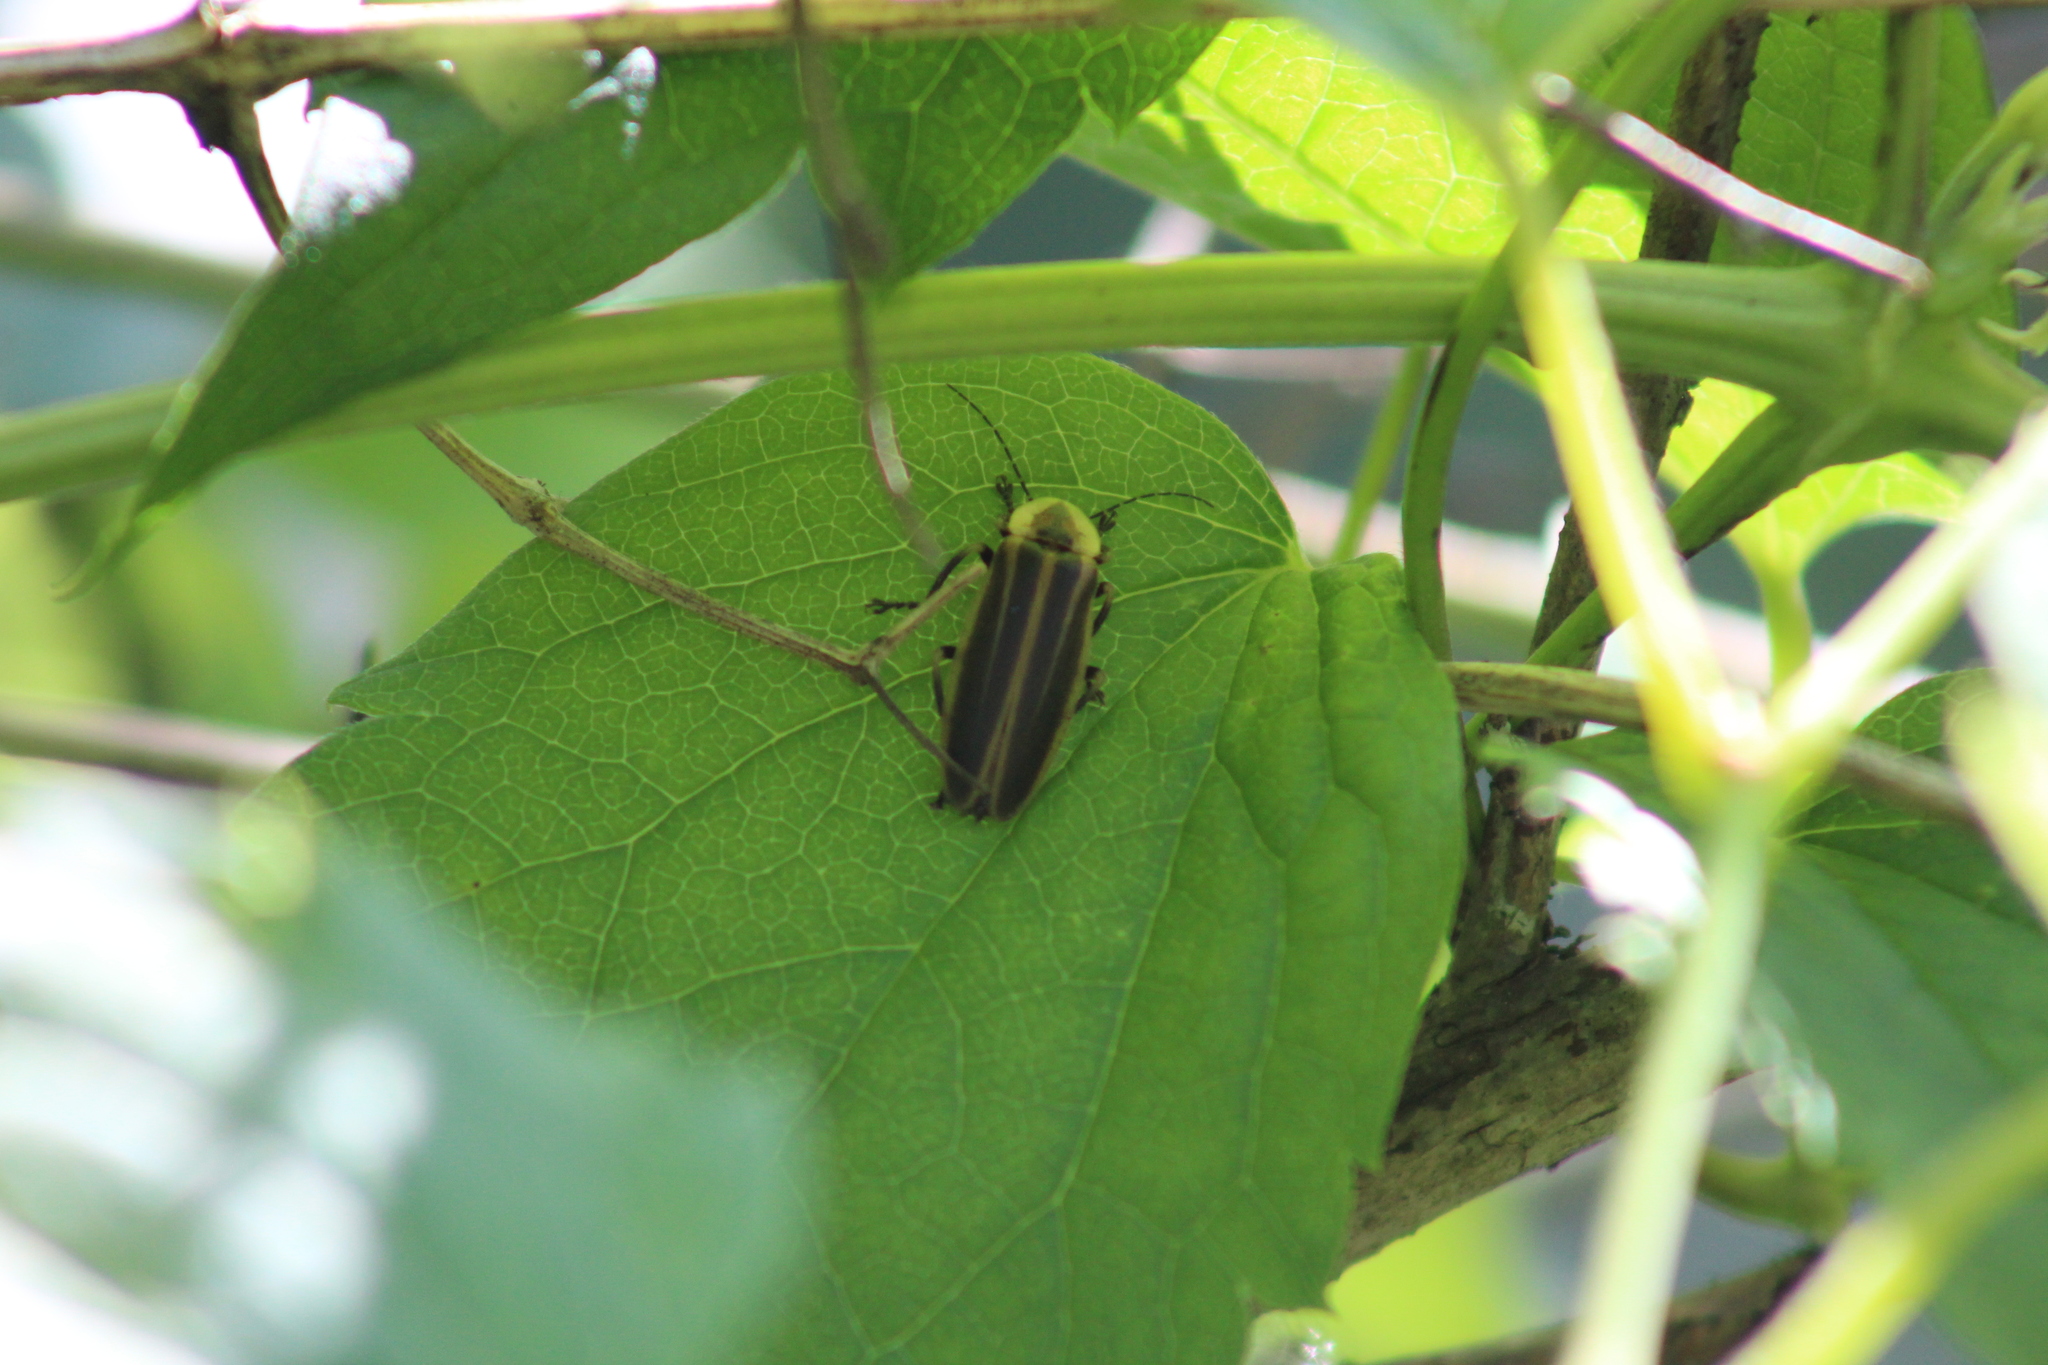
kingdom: Animalia
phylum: Arthropoda
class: Insecta
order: Coleoptera
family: Lampyridae
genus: Photuris
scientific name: Photuris
